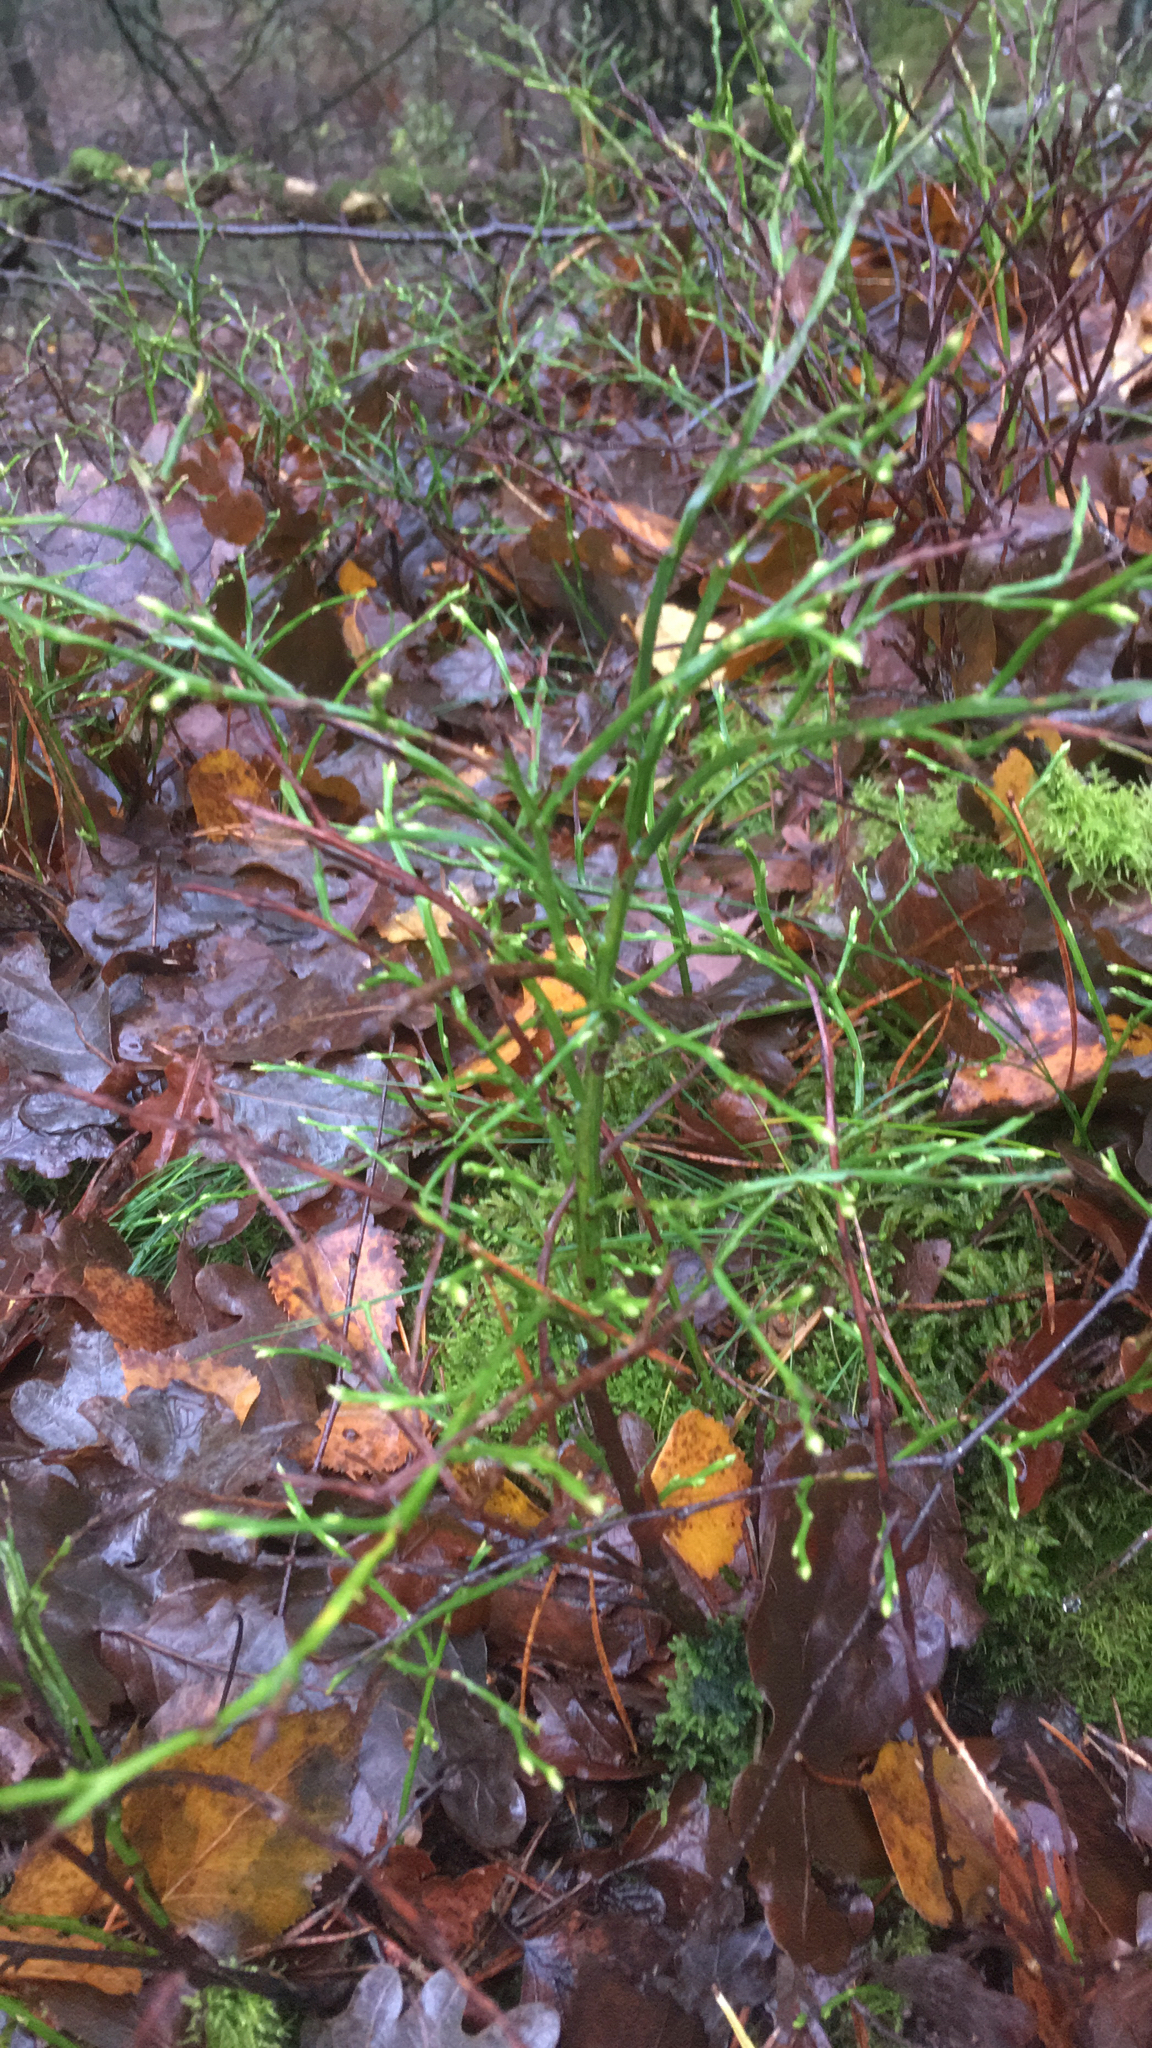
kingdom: Plantae
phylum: Tracheophyta
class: Magnoliopsida
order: Ericales
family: Ericaceae
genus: Vaccinium
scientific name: Vaccinium myrtillus
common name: Bilberry
